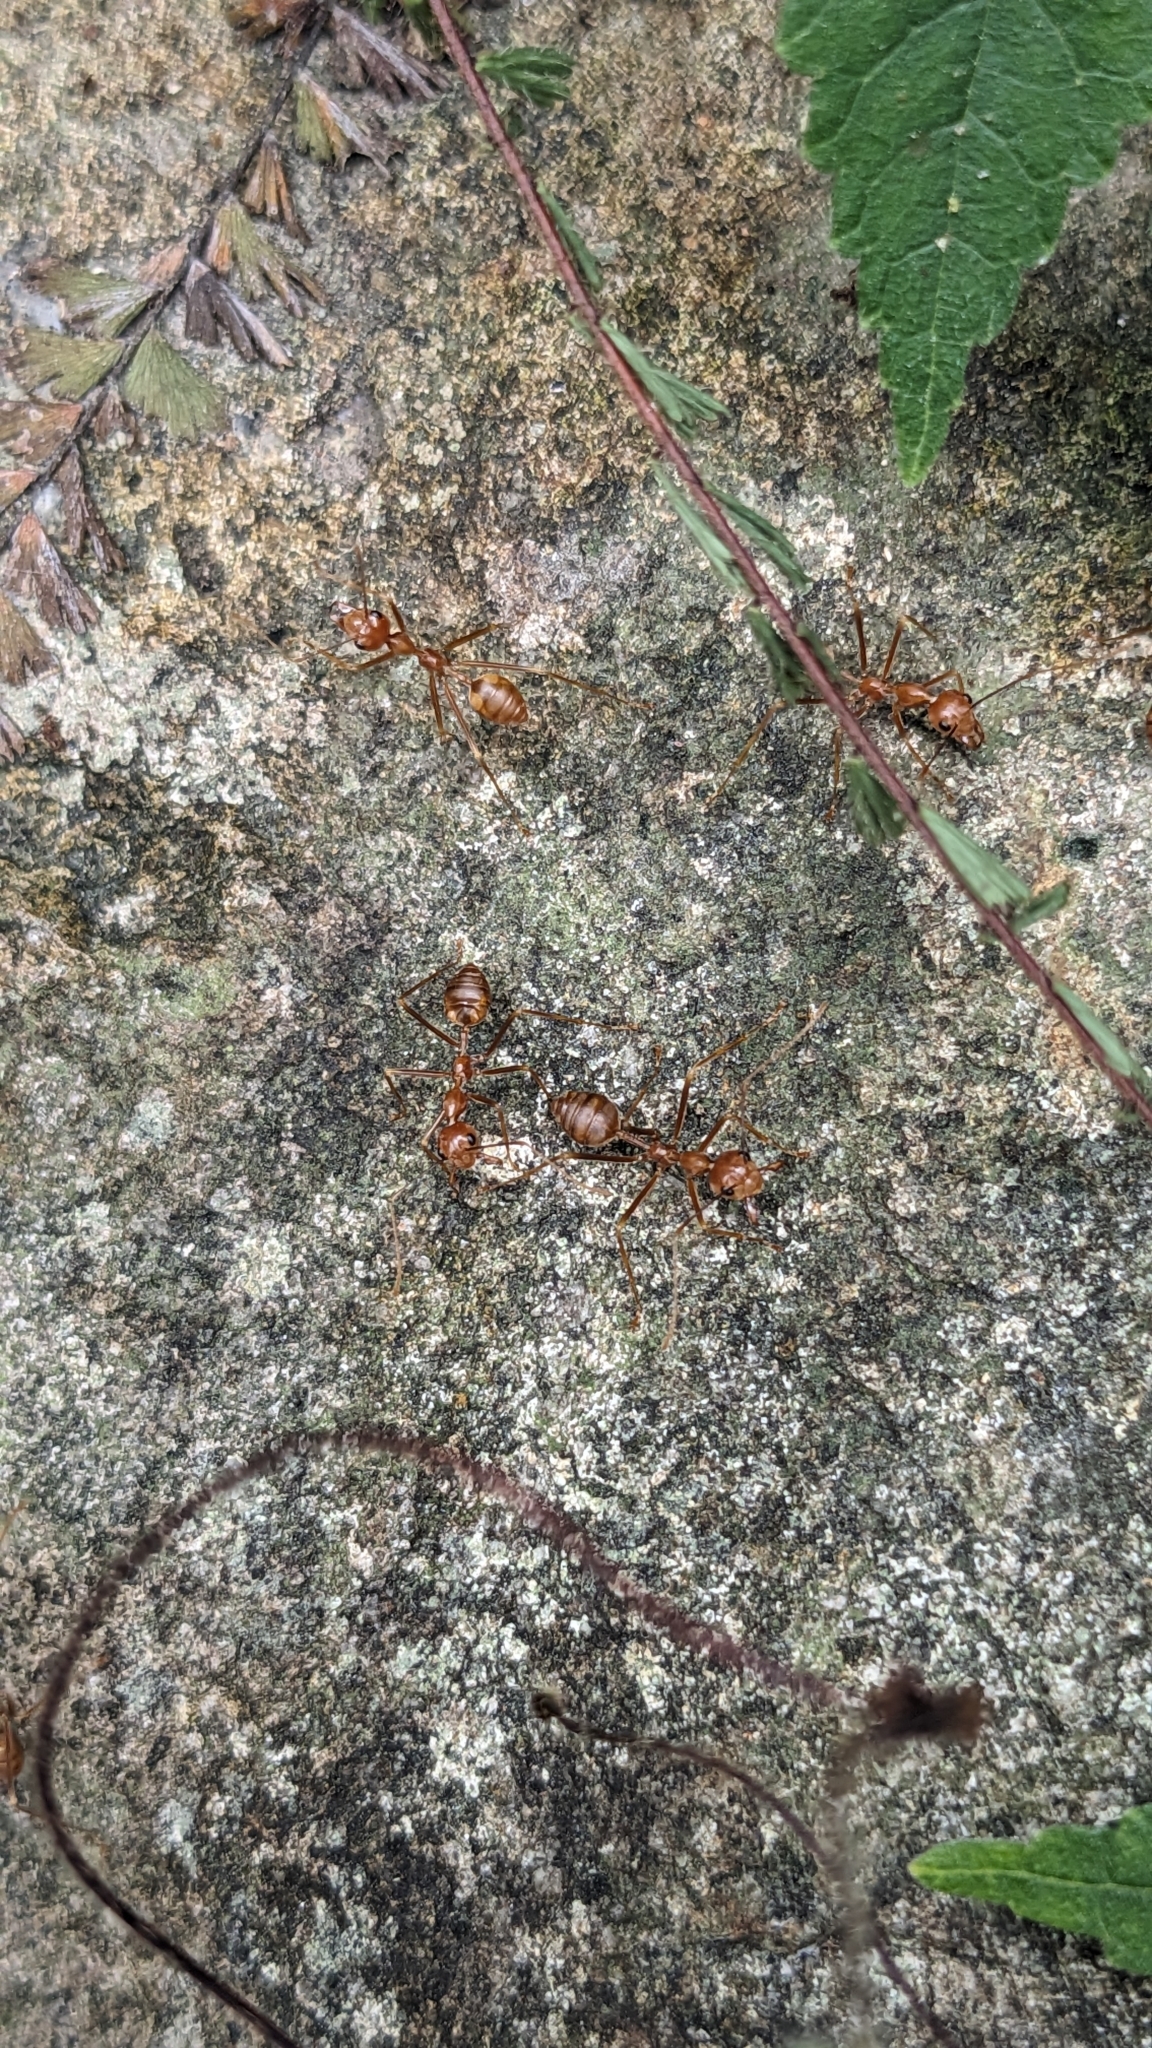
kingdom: Animalia
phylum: Arthropoda
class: Insecta
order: Hymenoptera
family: Formicidae
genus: Oecophylla
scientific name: Oecophylla smaragdina
